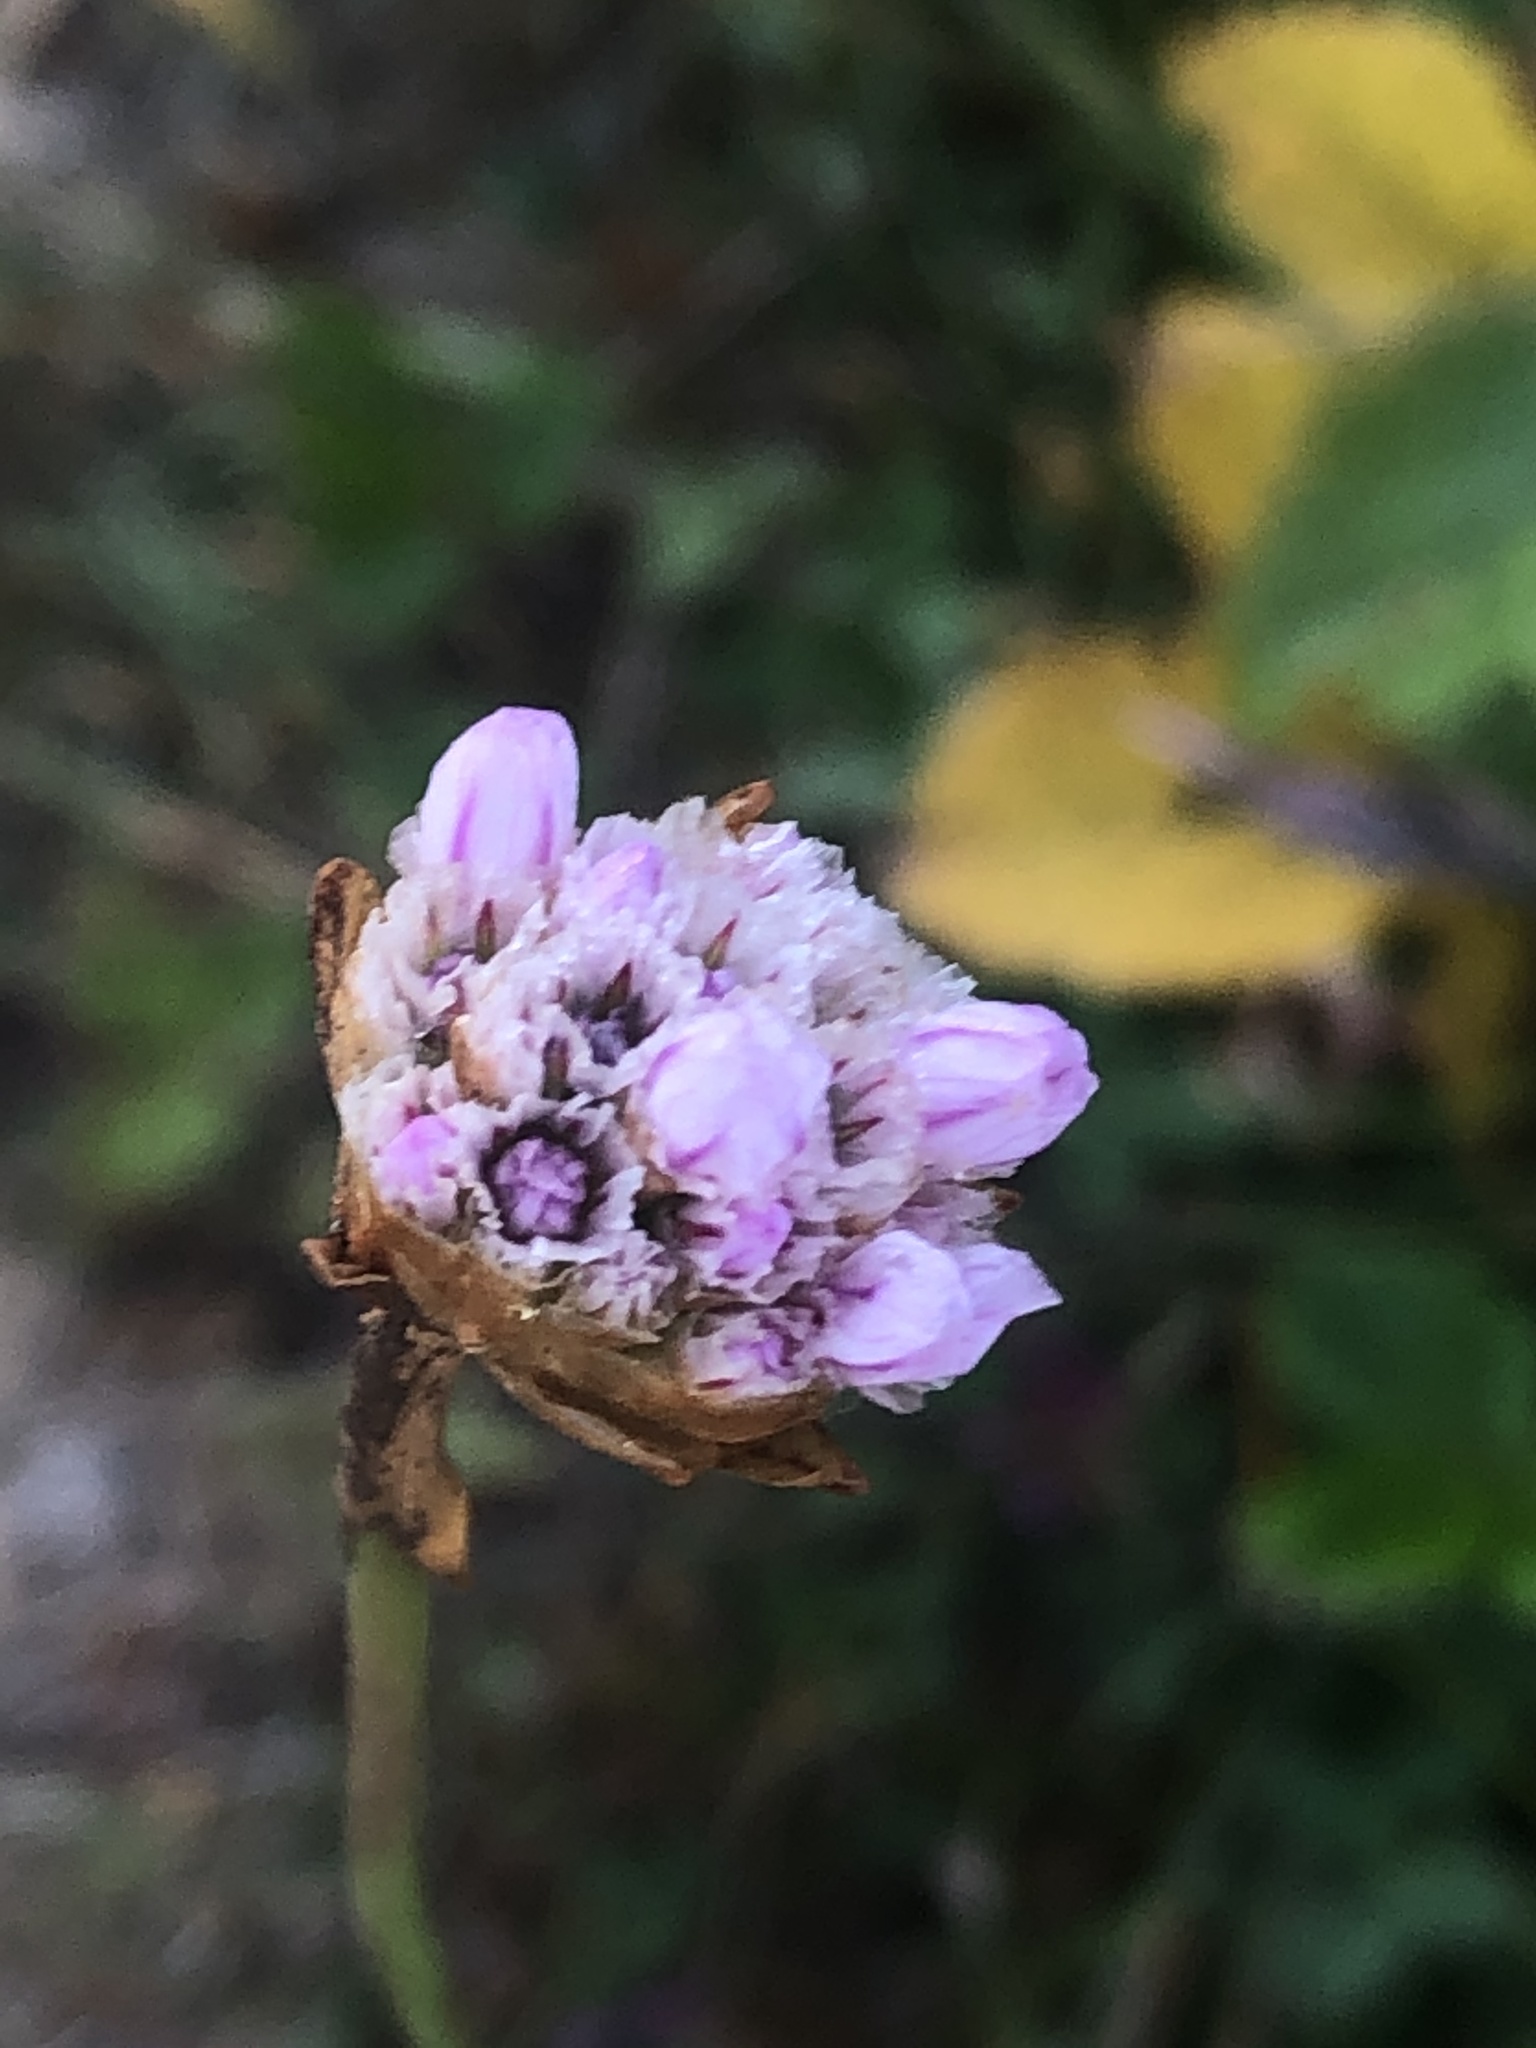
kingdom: Plantae
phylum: Tracheophyta
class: Magnoliopsida
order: Caryophyllales
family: Plumbaginaceae
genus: Armeria
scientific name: Armeria maritima
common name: Thrift
